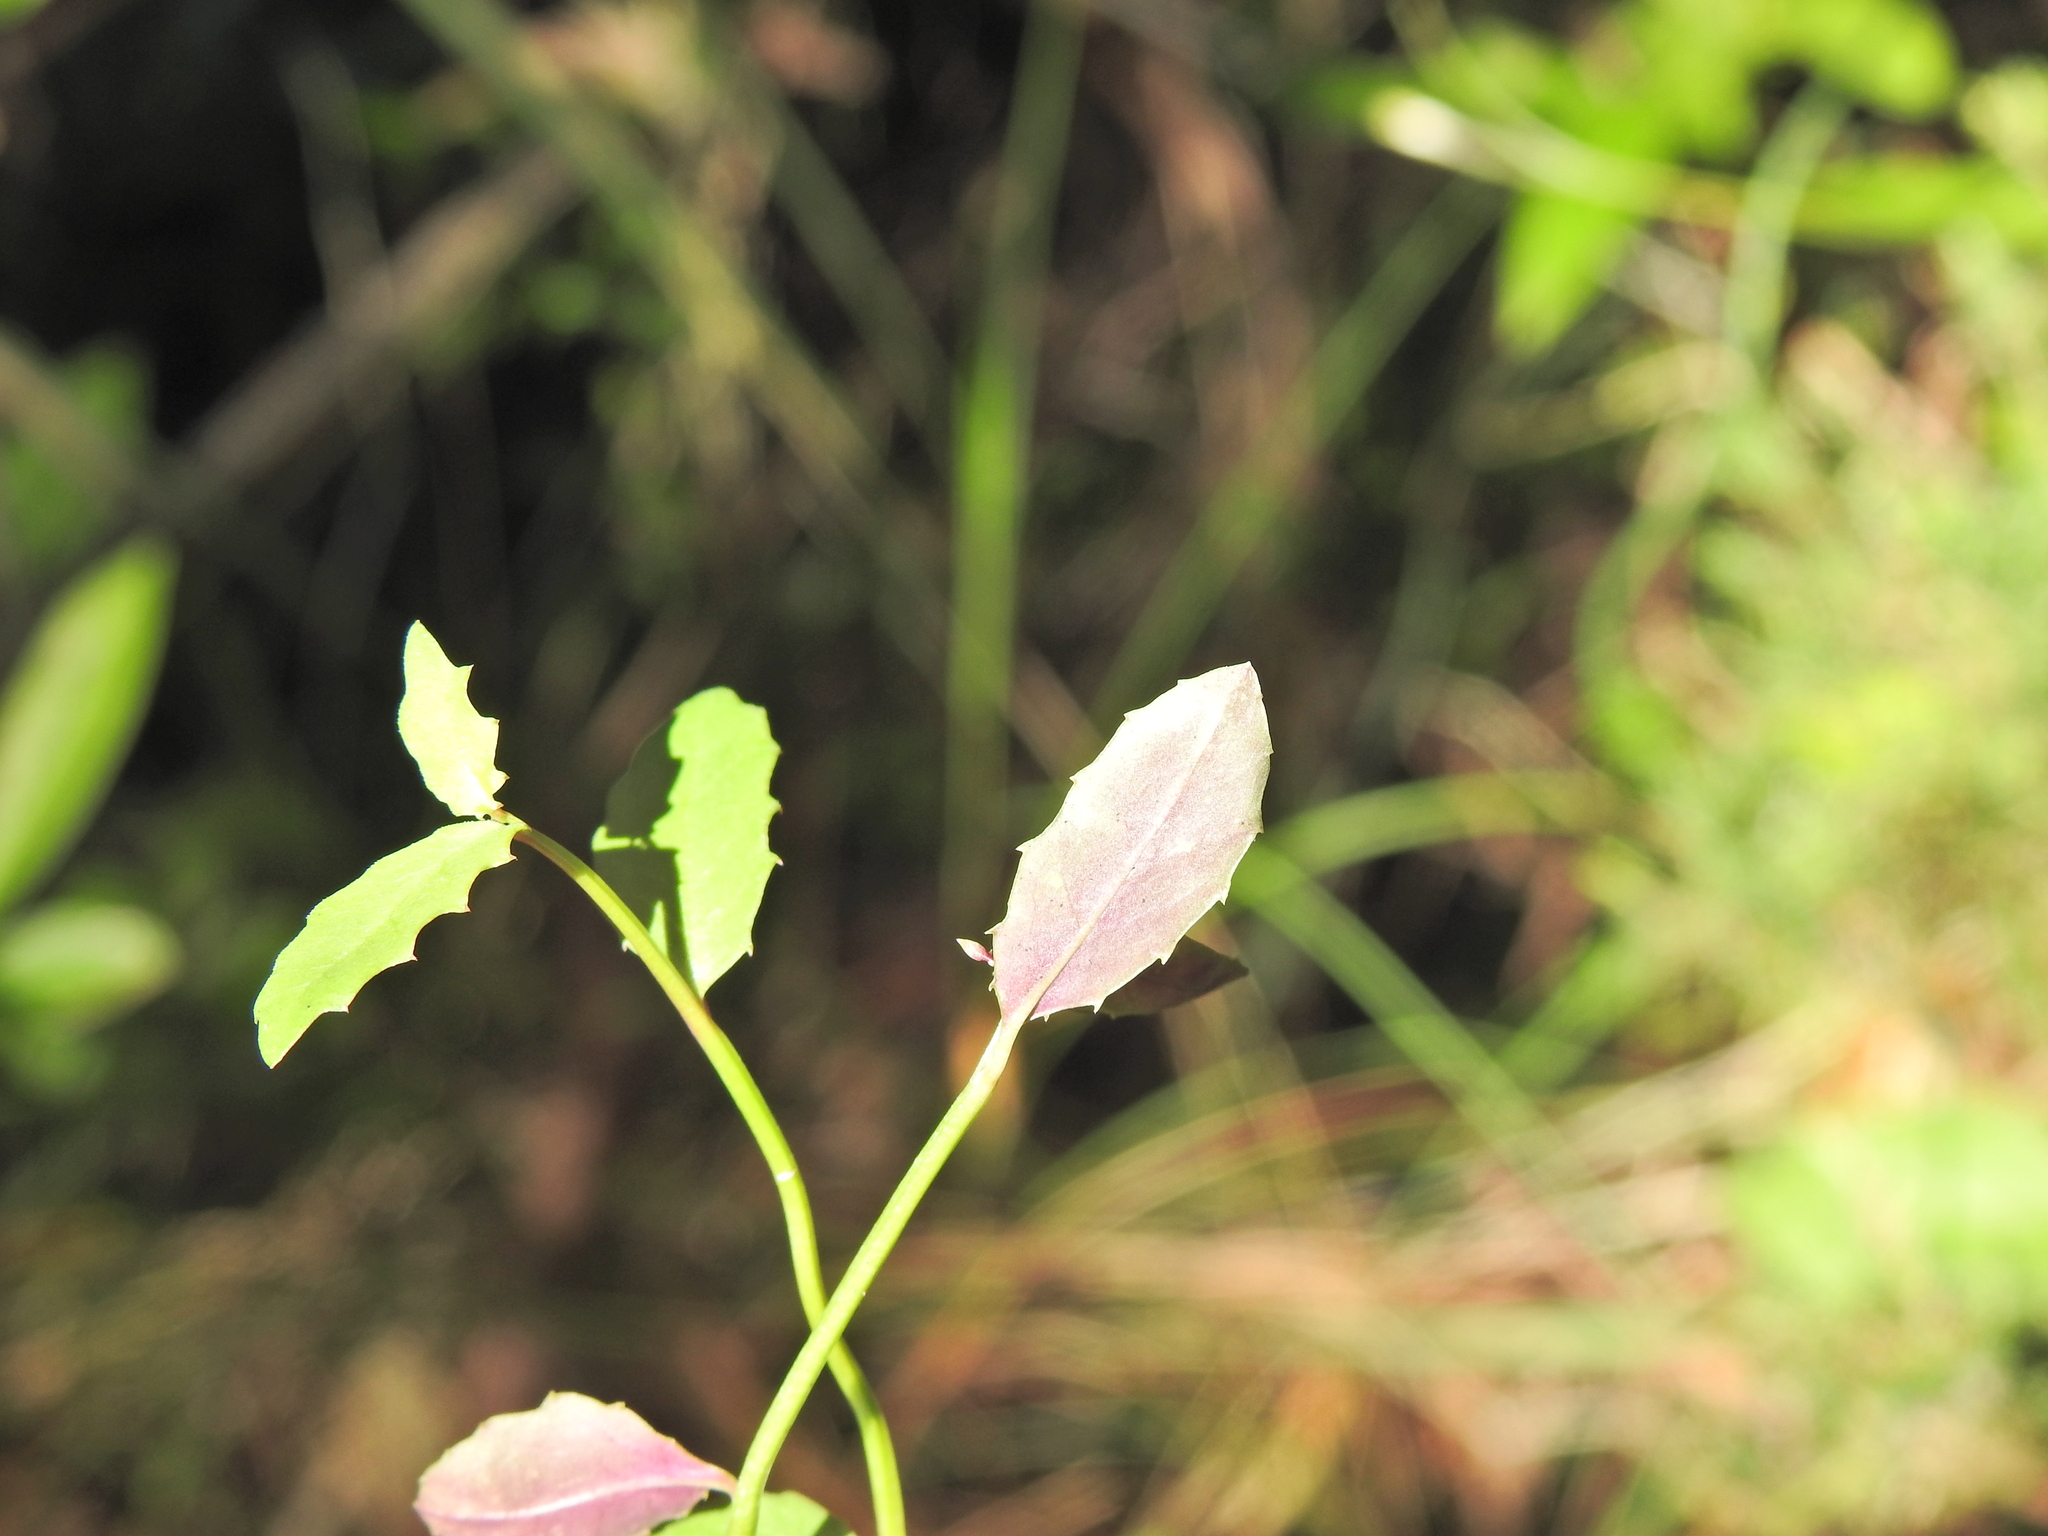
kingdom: Plantae
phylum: Tracheophyta
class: Magnoliopsida
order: Asterales
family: Campanulaceae
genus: Lobelia
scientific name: Lobelia purpurascens
